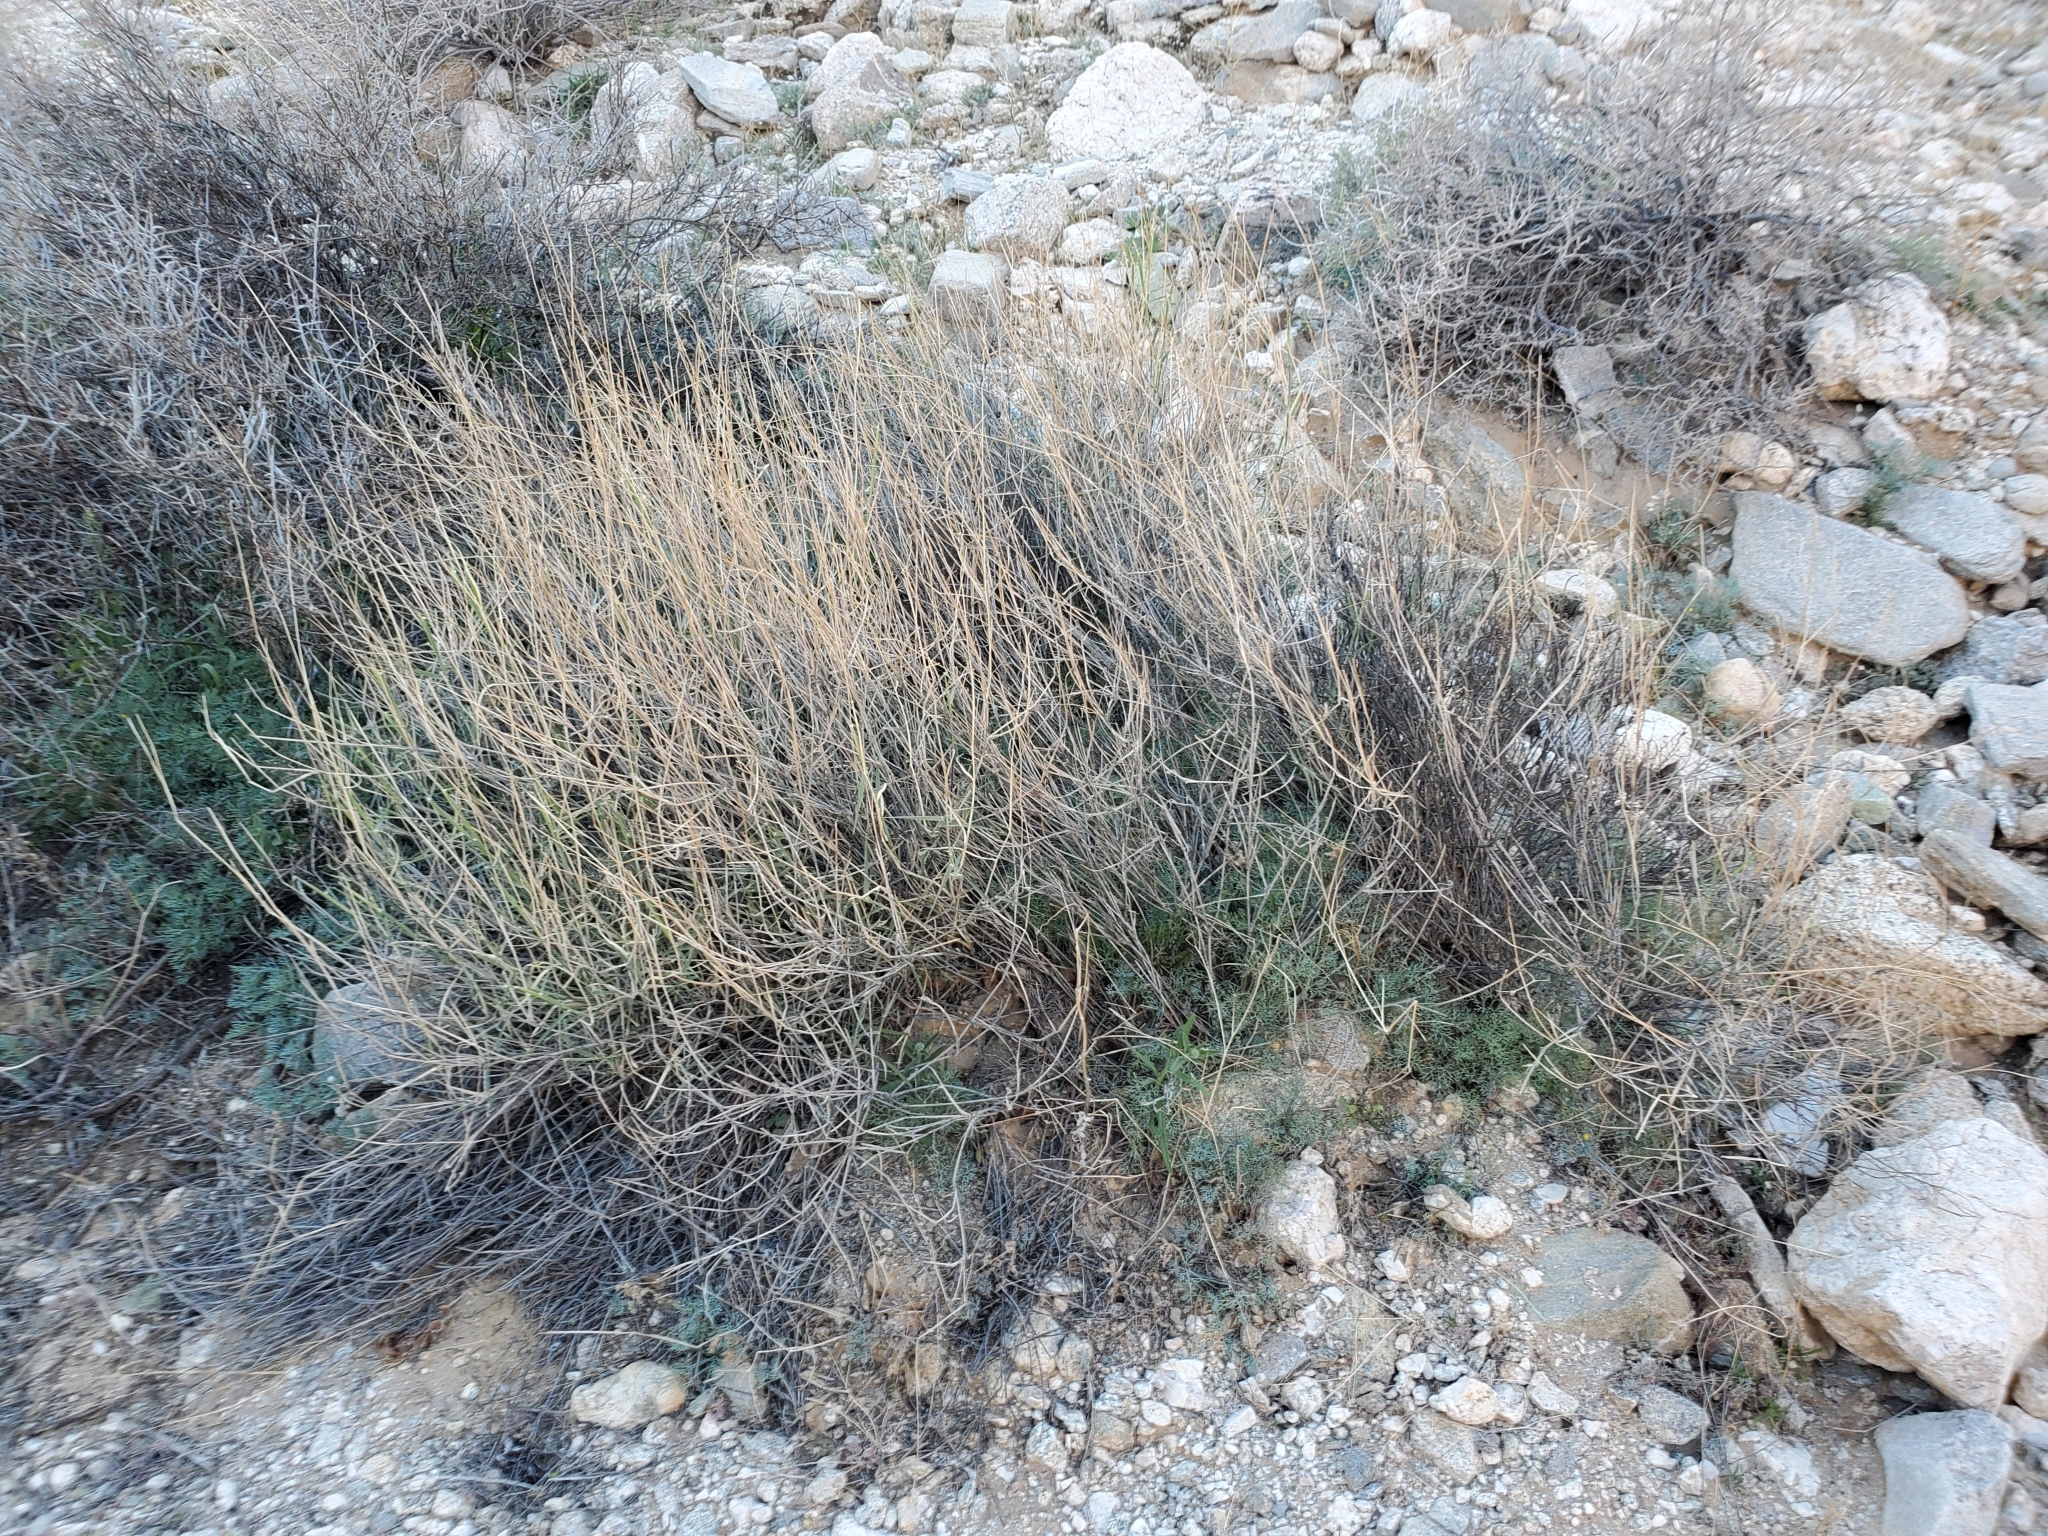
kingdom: Plantae
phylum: Tracheophyta
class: Liliopsida
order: Poales
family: Poaceae
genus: Hilaria
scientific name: Hilaria rigida
